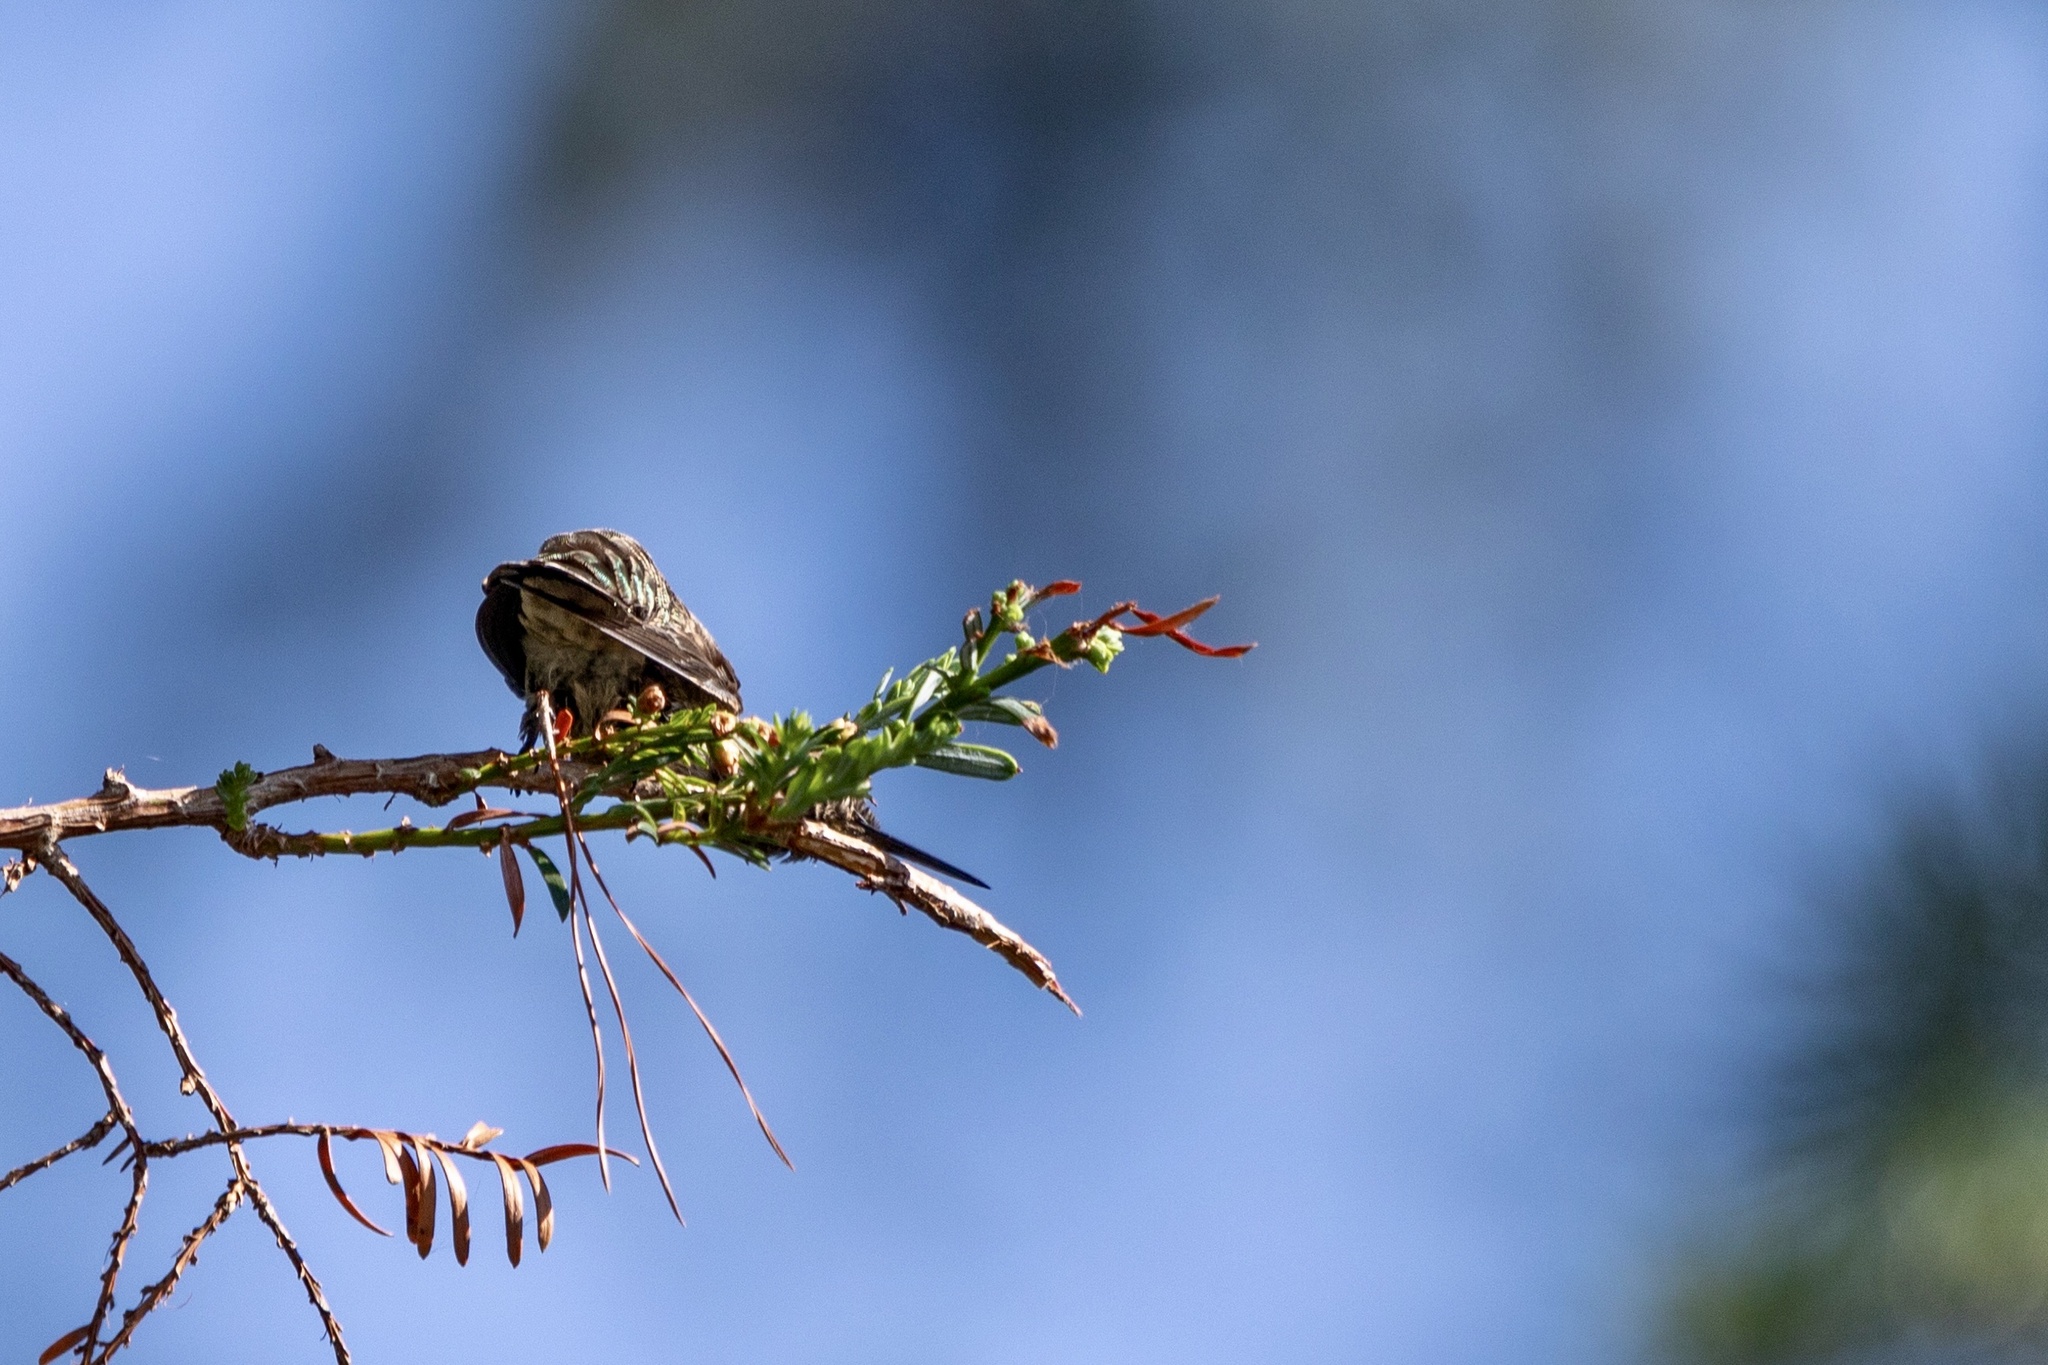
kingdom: Animalia
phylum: Chordata
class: Aves
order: Apodiformes
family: Trochilidae
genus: Calypte
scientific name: Calypte anna
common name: Anna's hummingbird
